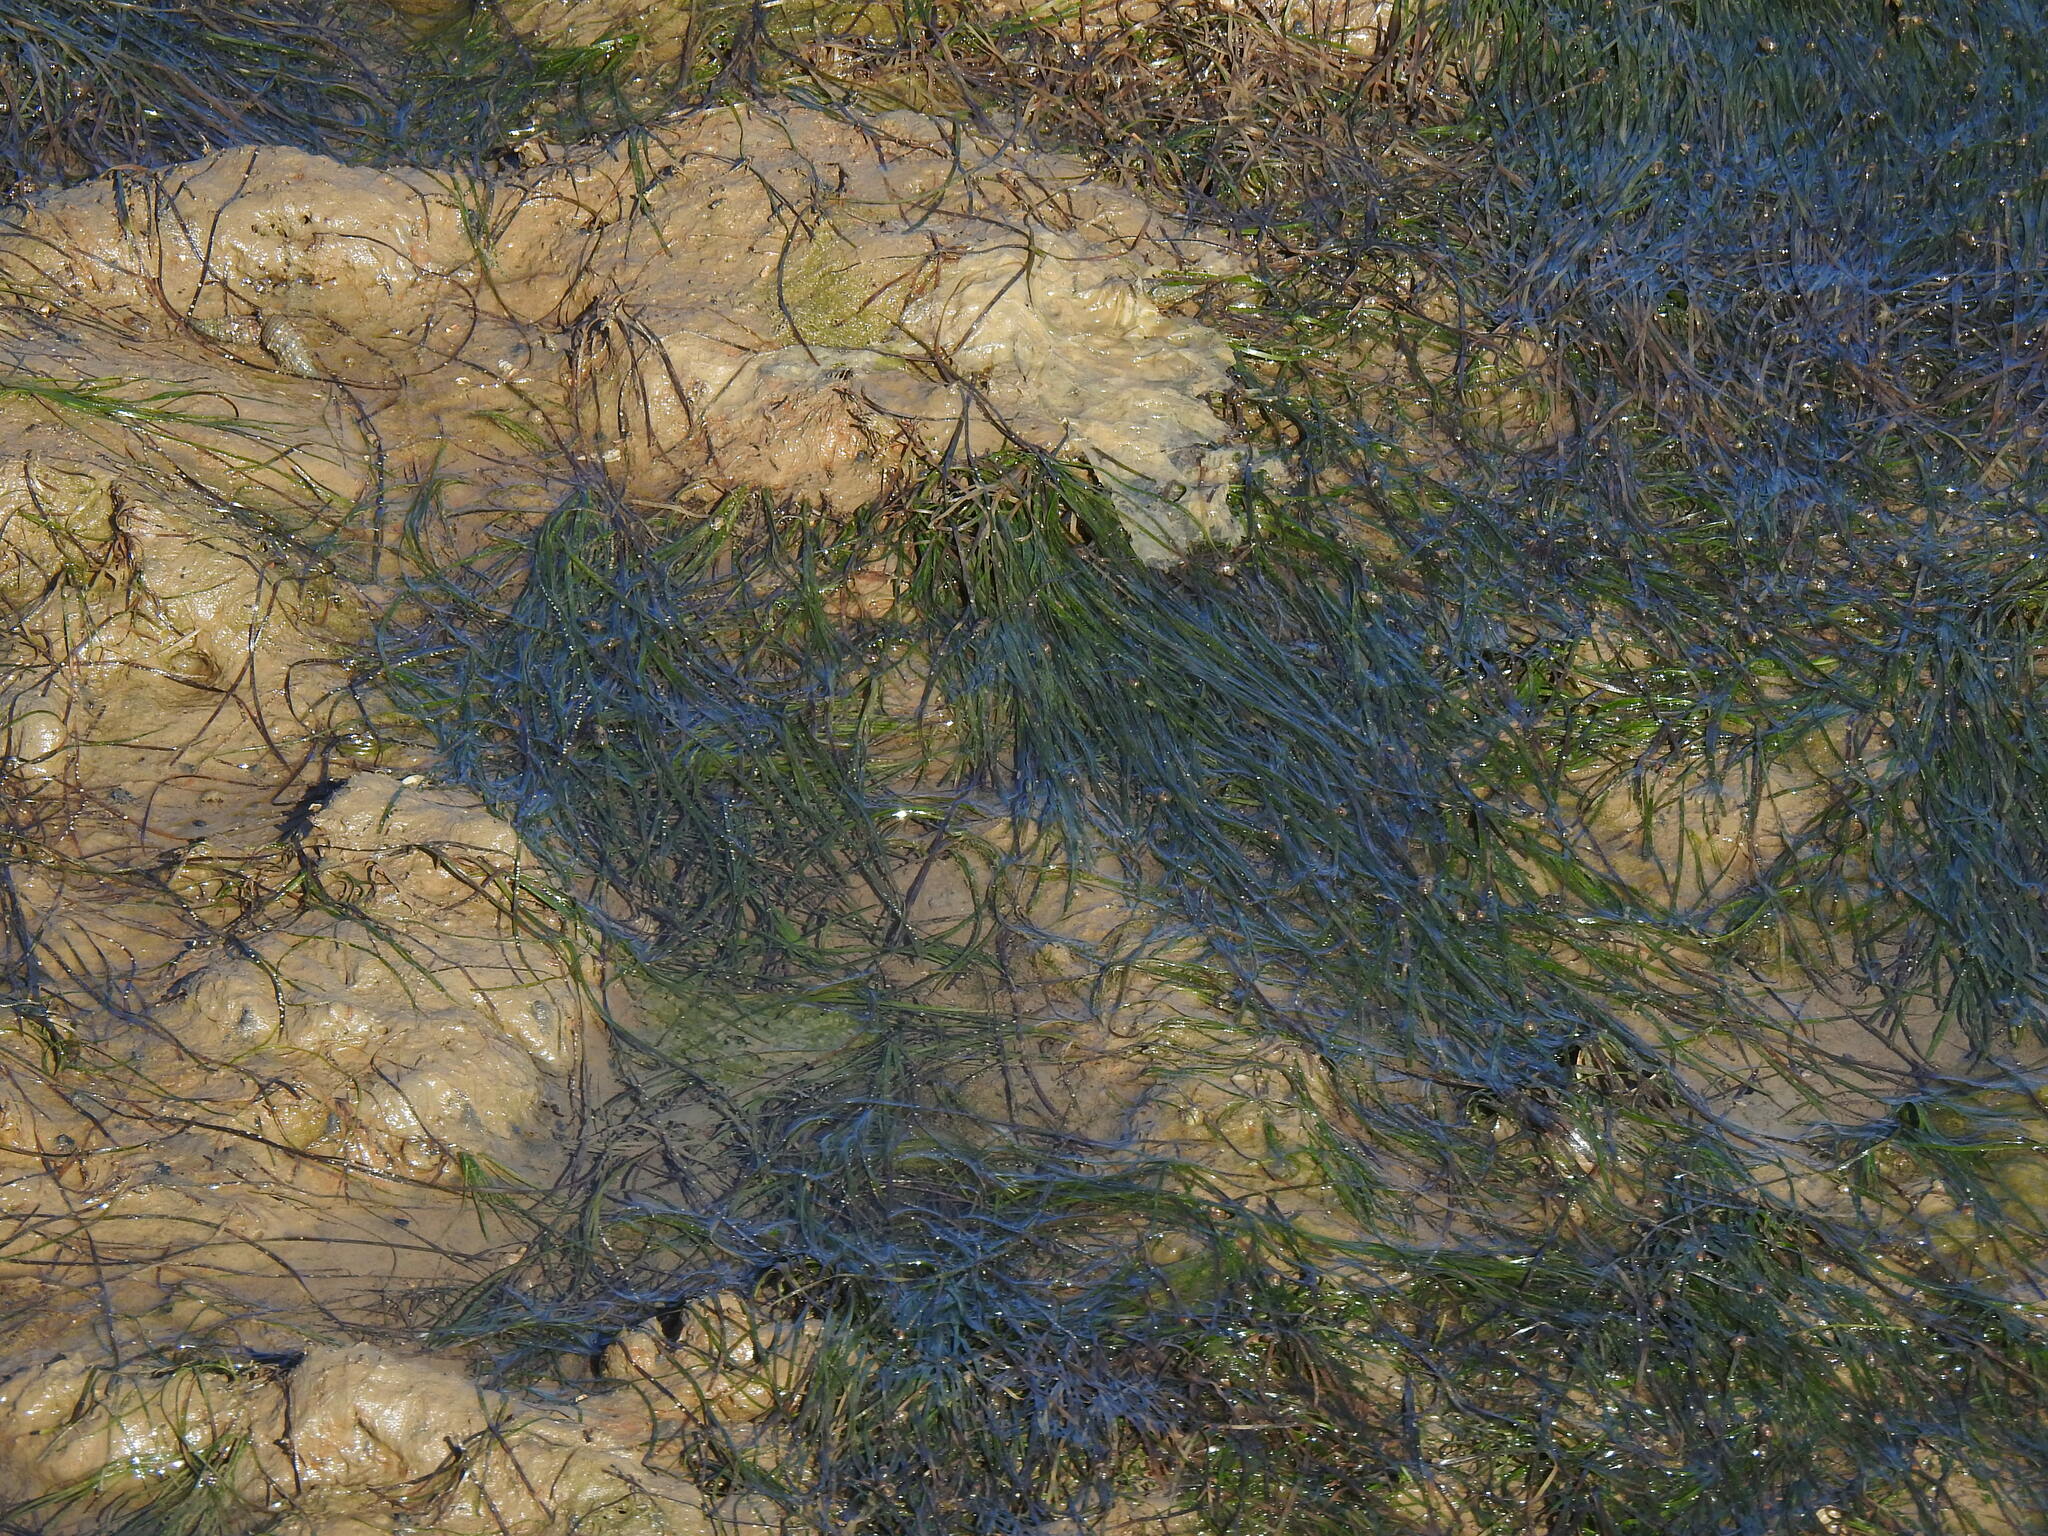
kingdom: Plantae
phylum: Tracheophyta
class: Liliopsida
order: Alismatales
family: Zosteraceae
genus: Zostera
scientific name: Zostera noltii
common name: Dwarf eelgrass
